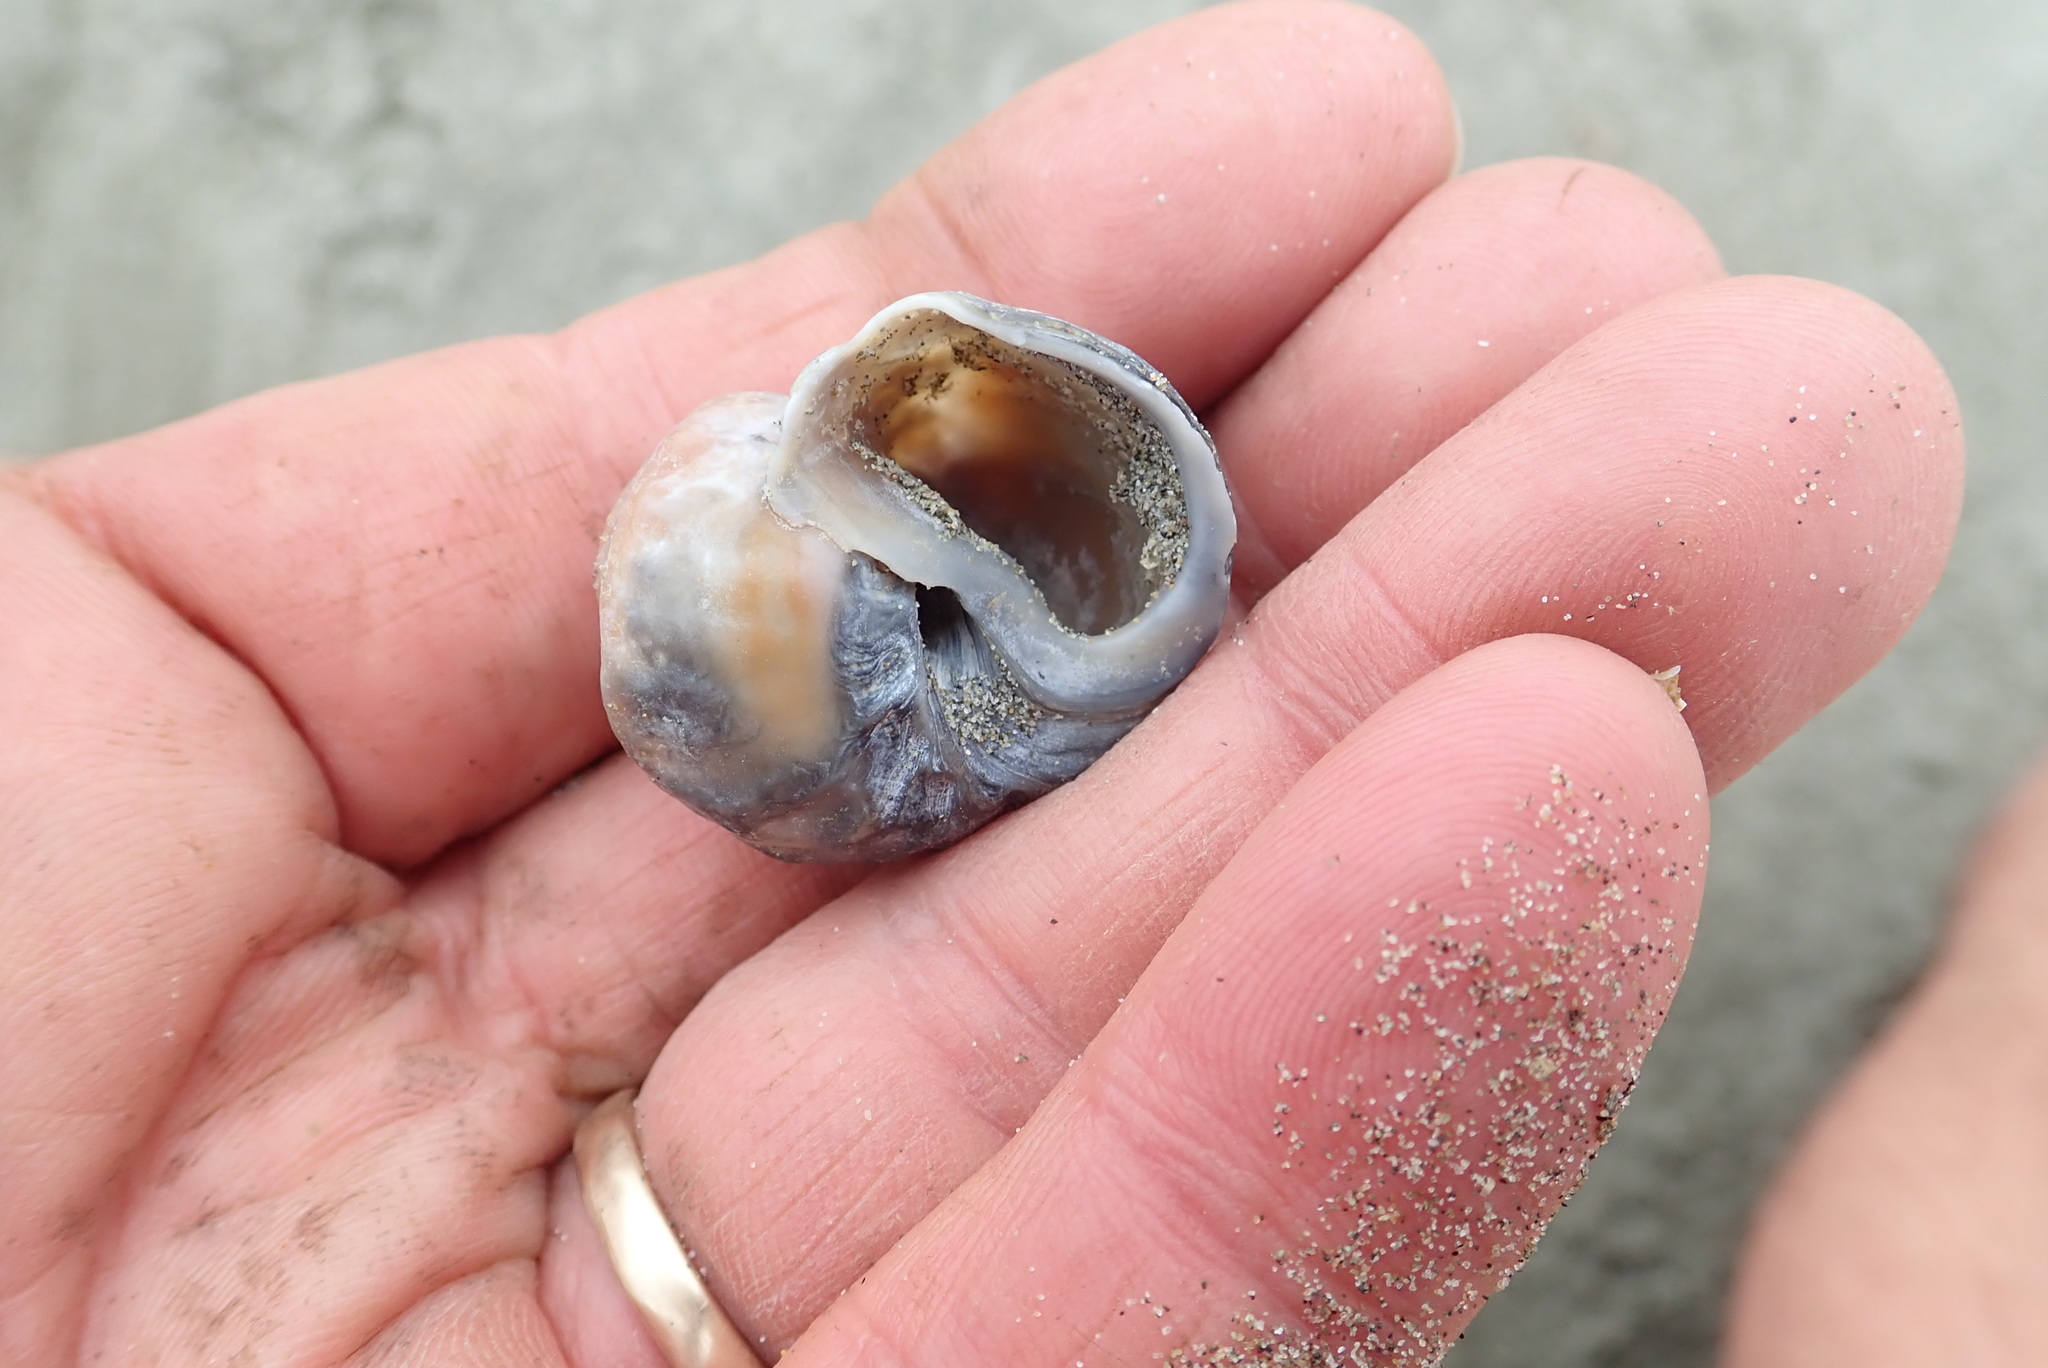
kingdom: Animalia
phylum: Mollusca
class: Gastropoda
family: Amphibolidae
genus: Amphibola
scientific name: Amphibola crenata
